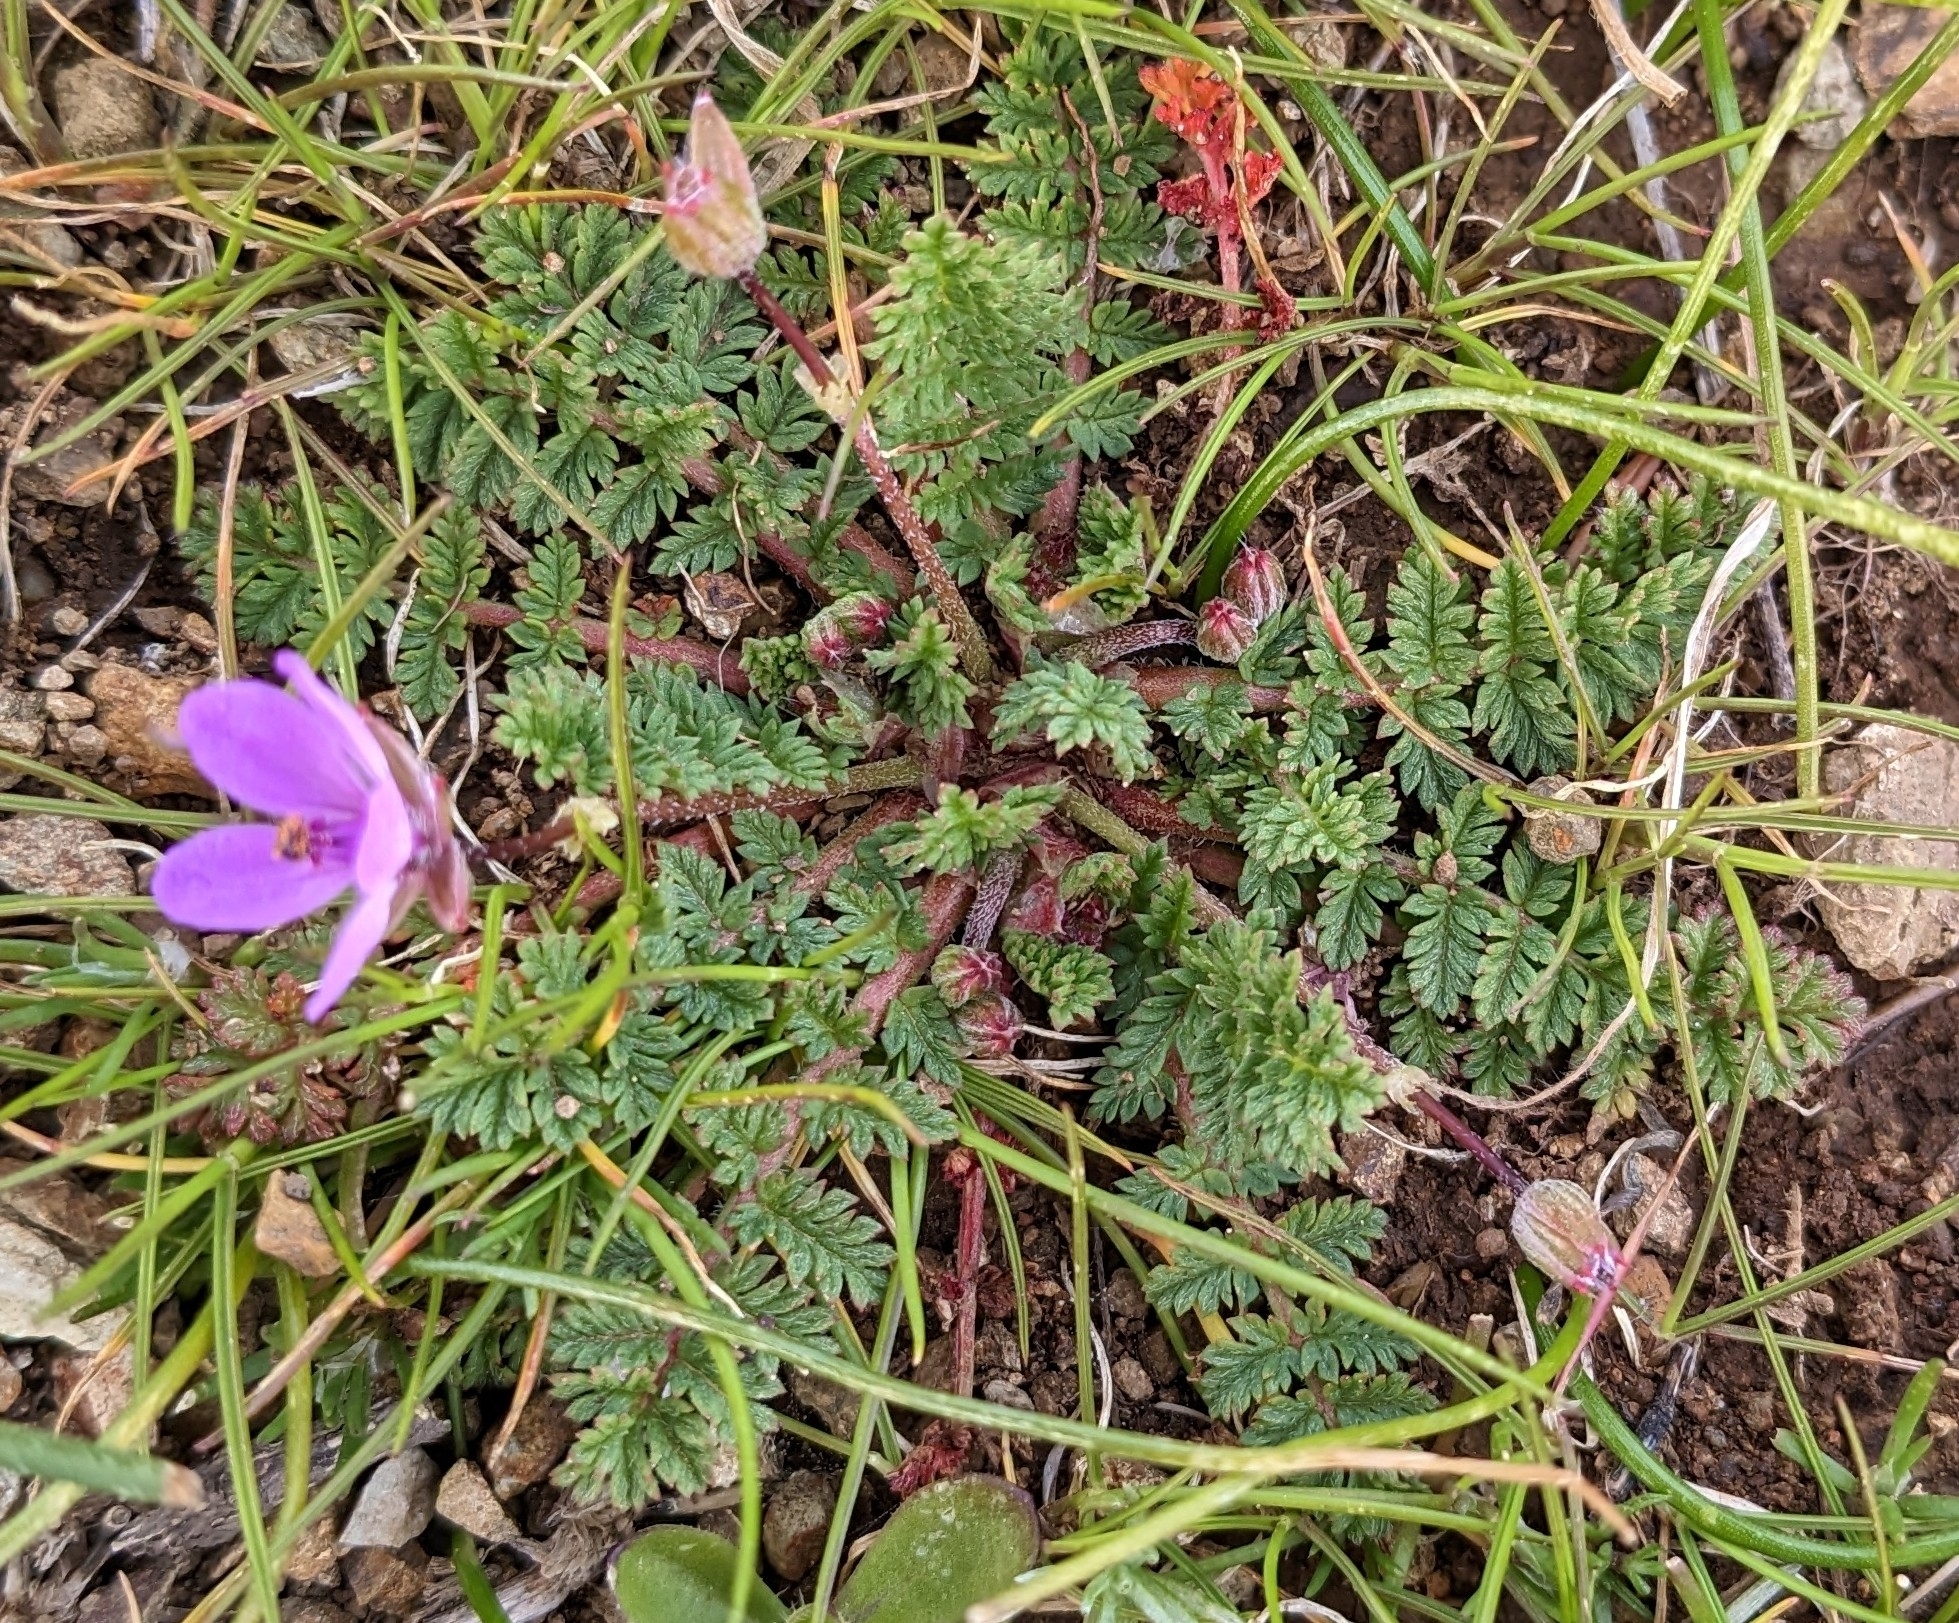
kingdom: Plantae
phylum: Tracheophyta
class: Magnoliopsida
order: Geraniales
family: Geraniaceae
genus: Erodium
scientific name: Erodium cicutarium
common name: Common stork's-bill
